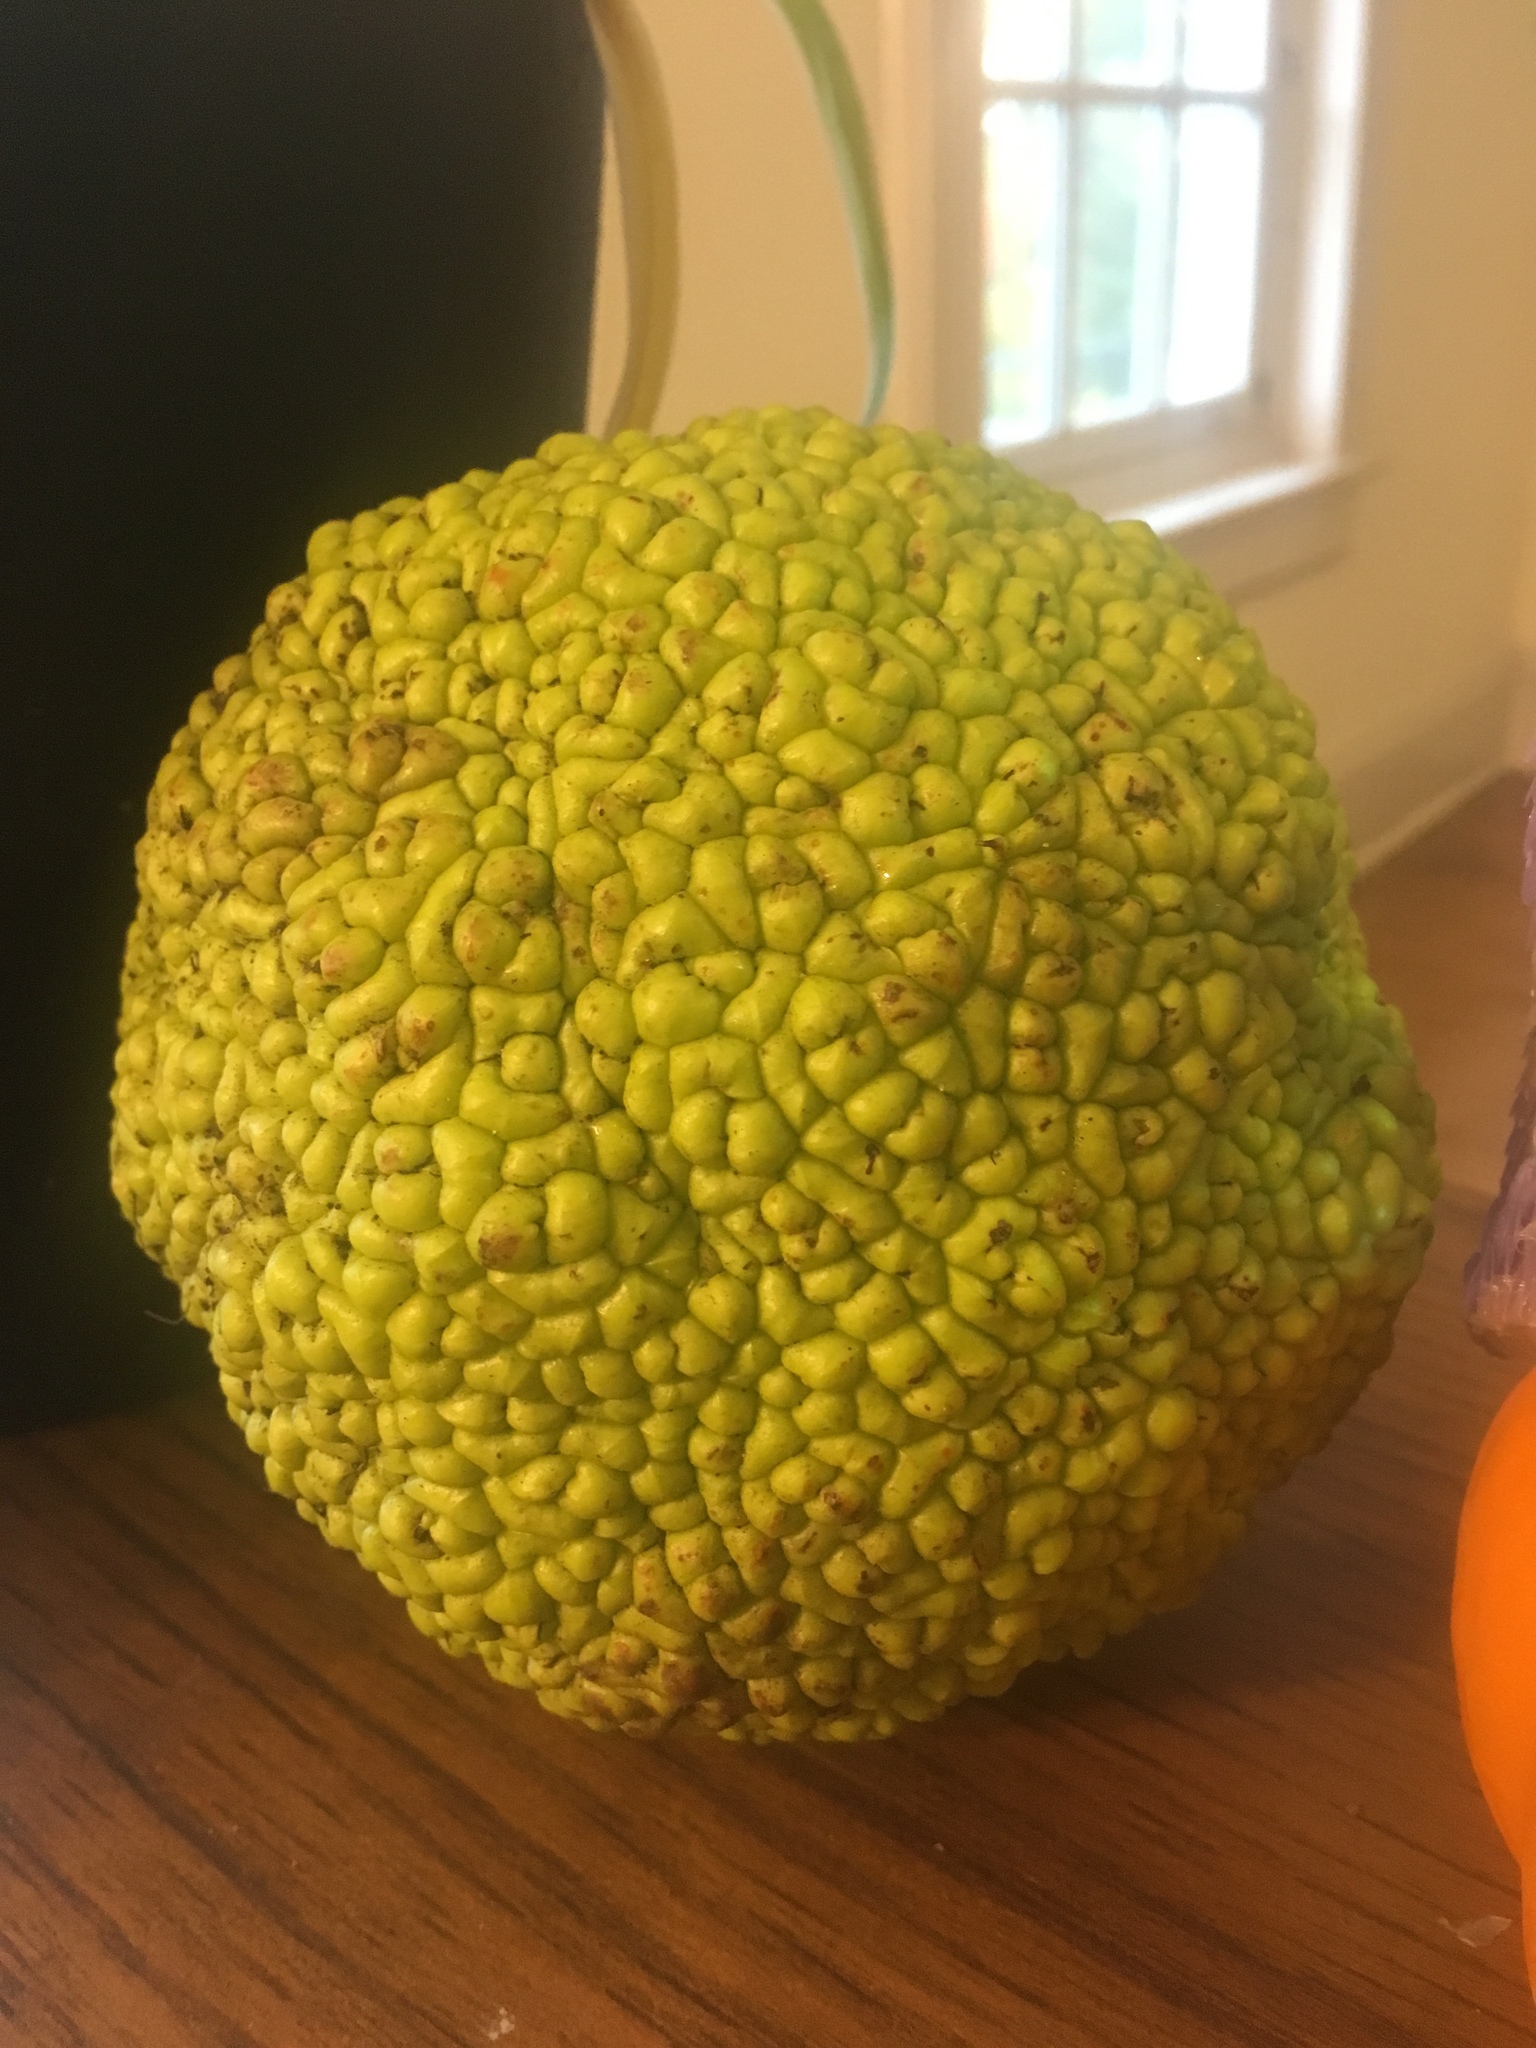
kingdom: Plantae
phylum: Tracheophyta
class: Magnoliopsida
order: Rosales
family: Moraceae
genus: Maclura
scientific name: Maclura pomifera
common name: Osage-orange
